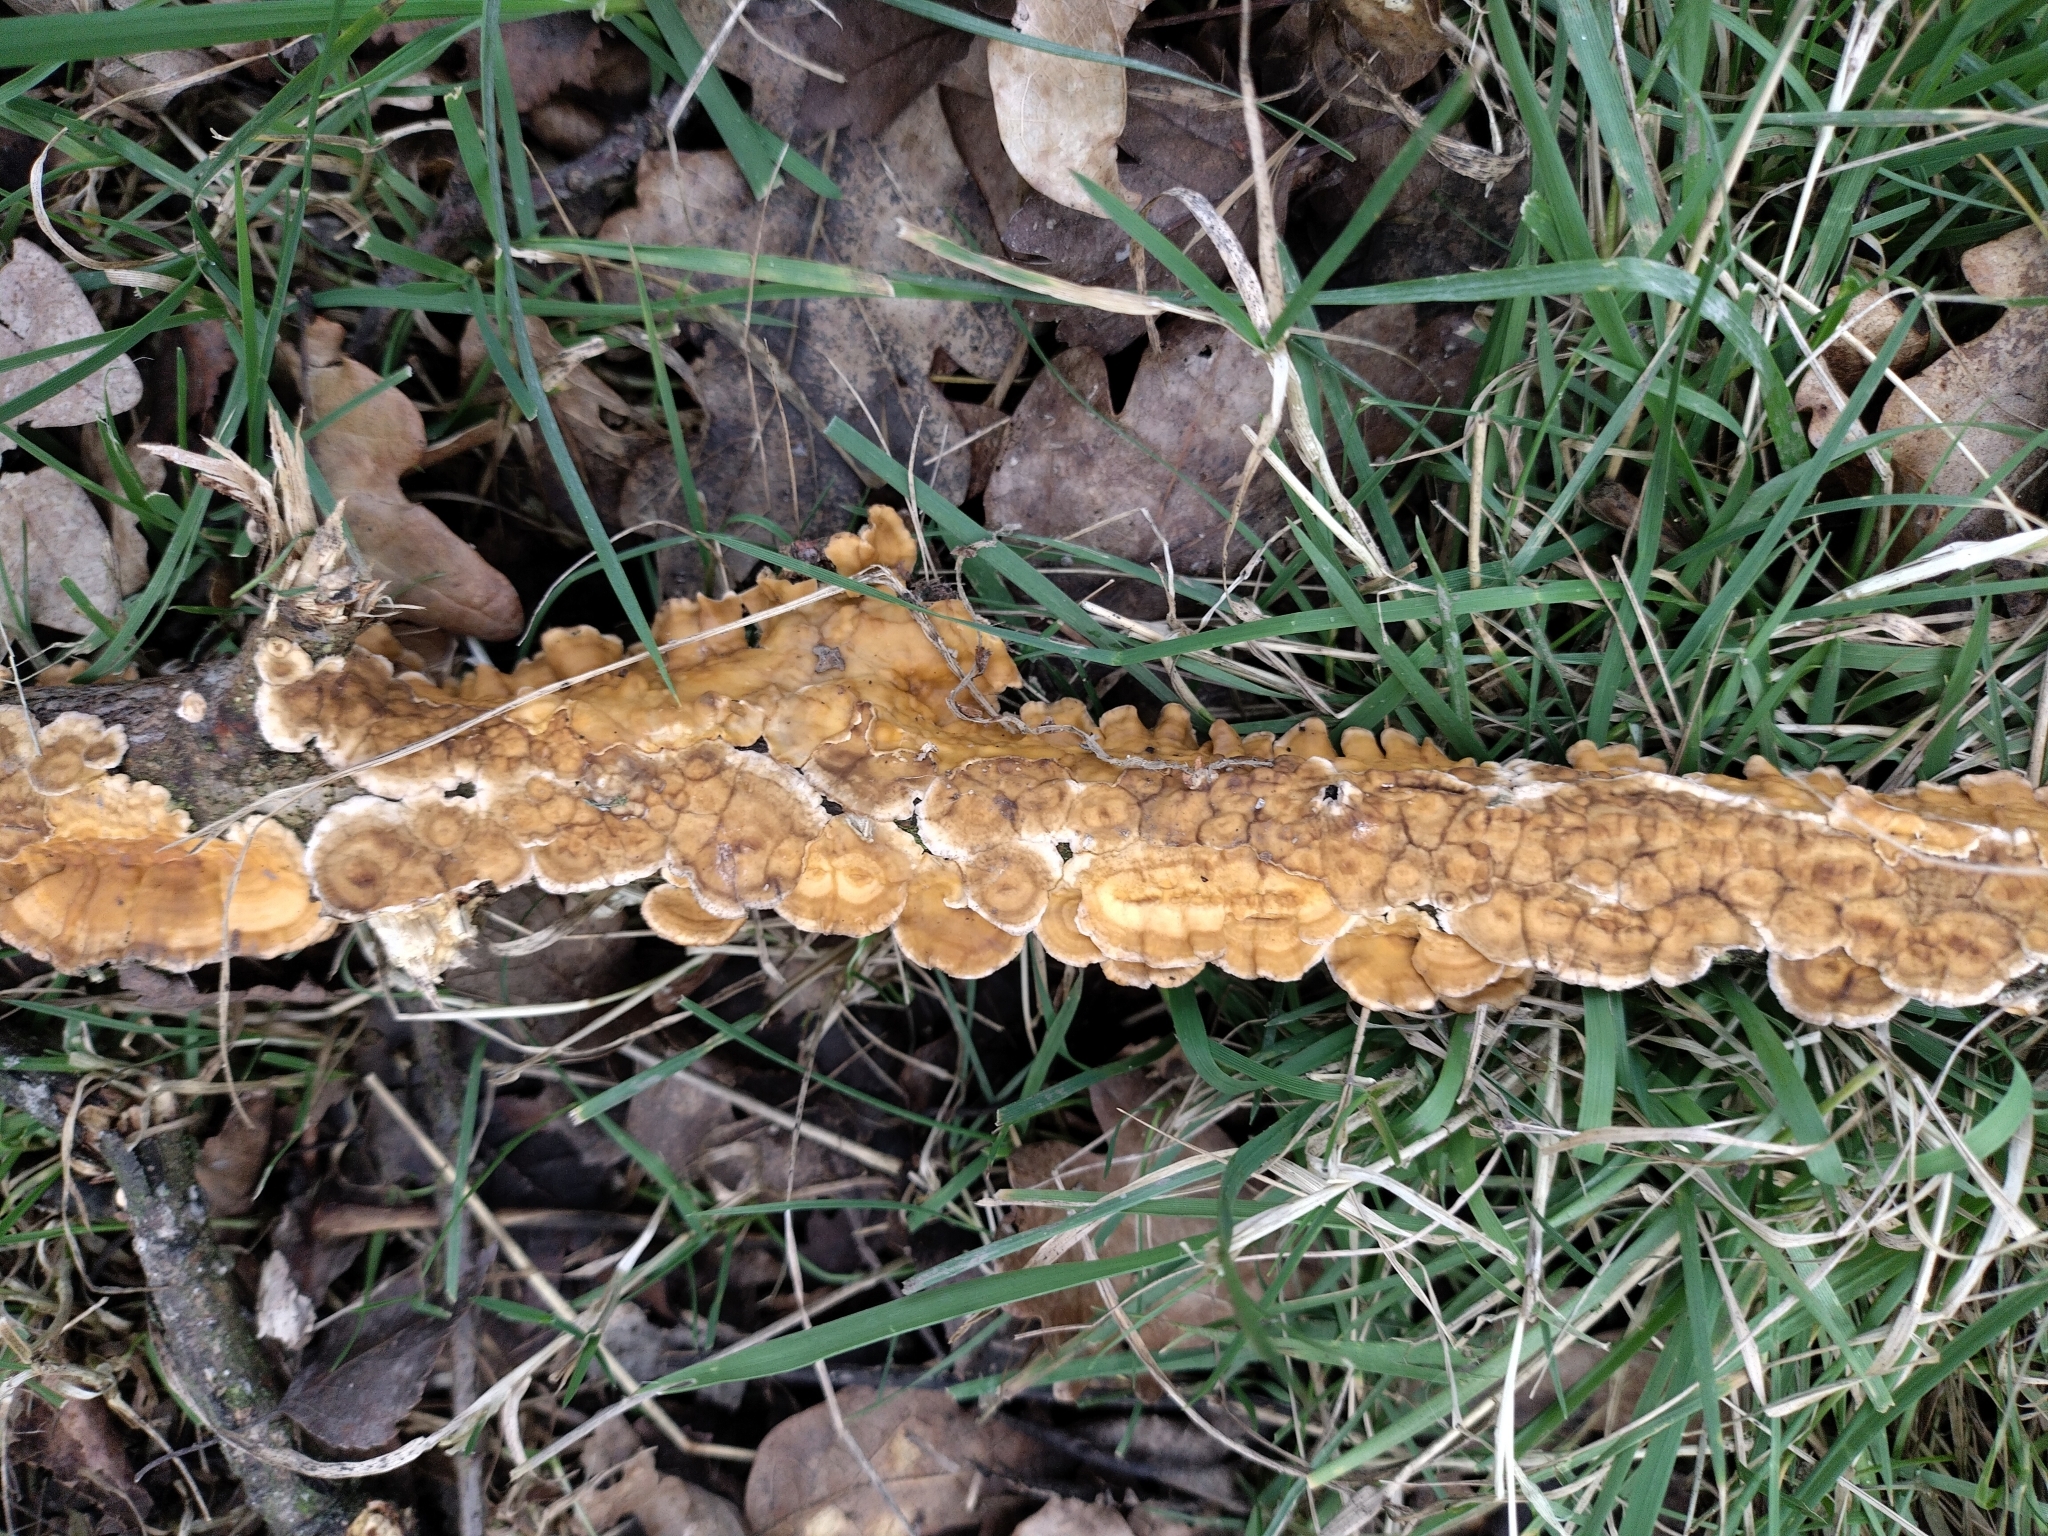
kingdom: Fungi
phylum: Basidiomycota
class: Agaricomycetes
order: Russulales
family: Stereaceae
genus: Stereum
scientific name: Stereum hirsutum
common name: Hairy curtain crust
